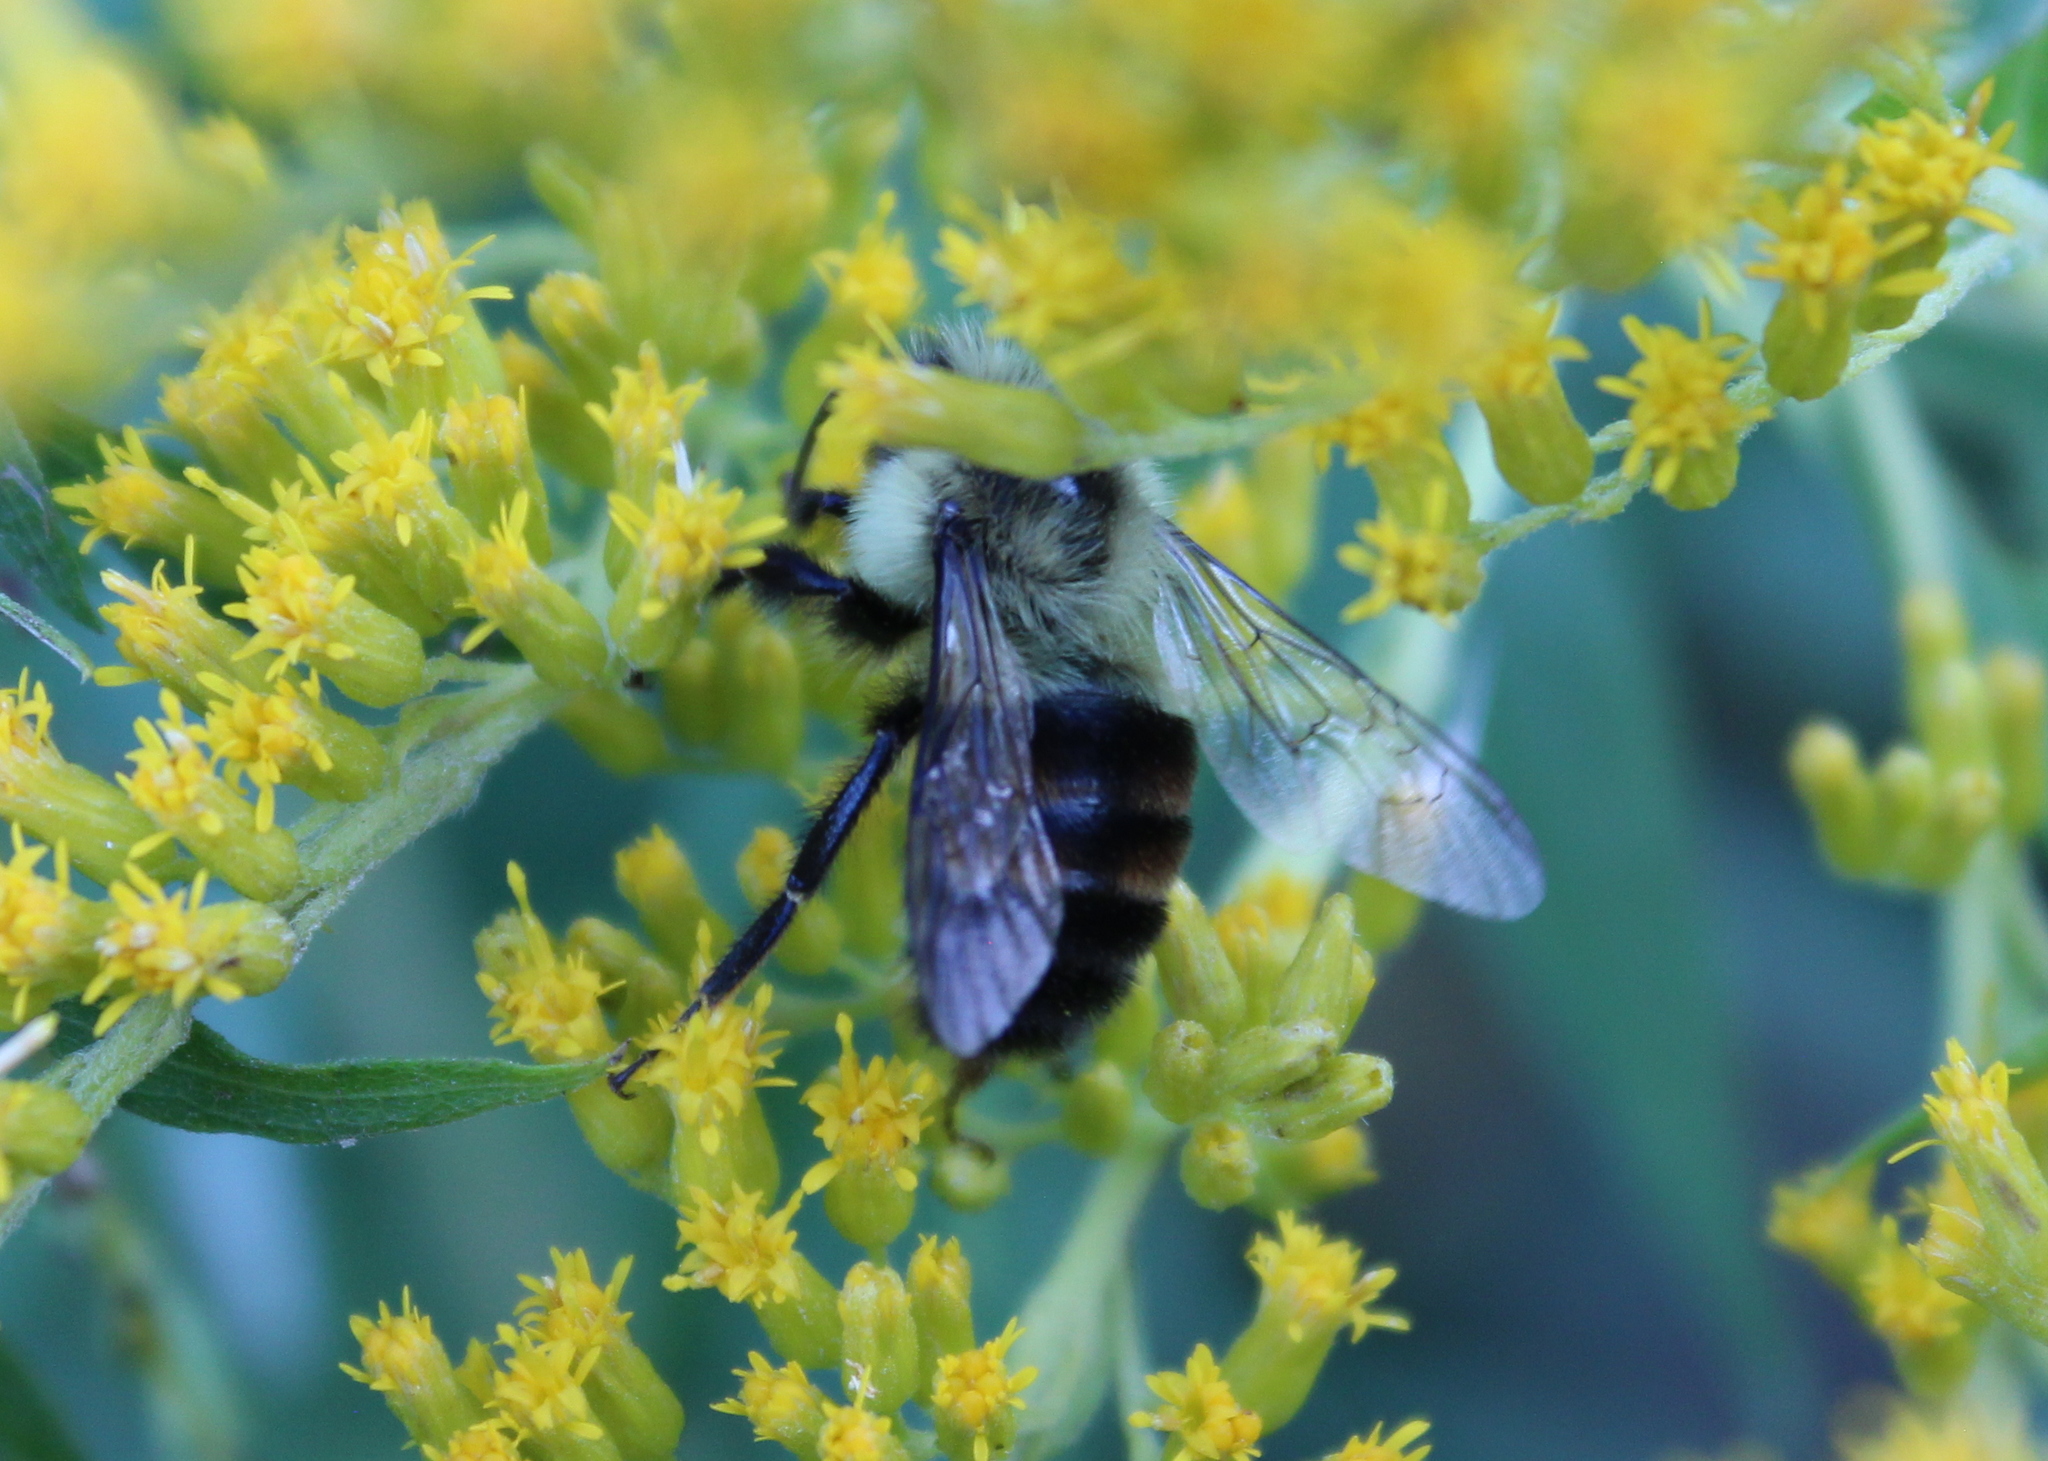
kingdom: Animalia
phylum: Arthropoda
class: Insecta
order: Hymenoptera
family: Apidae
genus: Bombus
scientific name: Bombus impatiens
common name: Common eastern bumble bee
